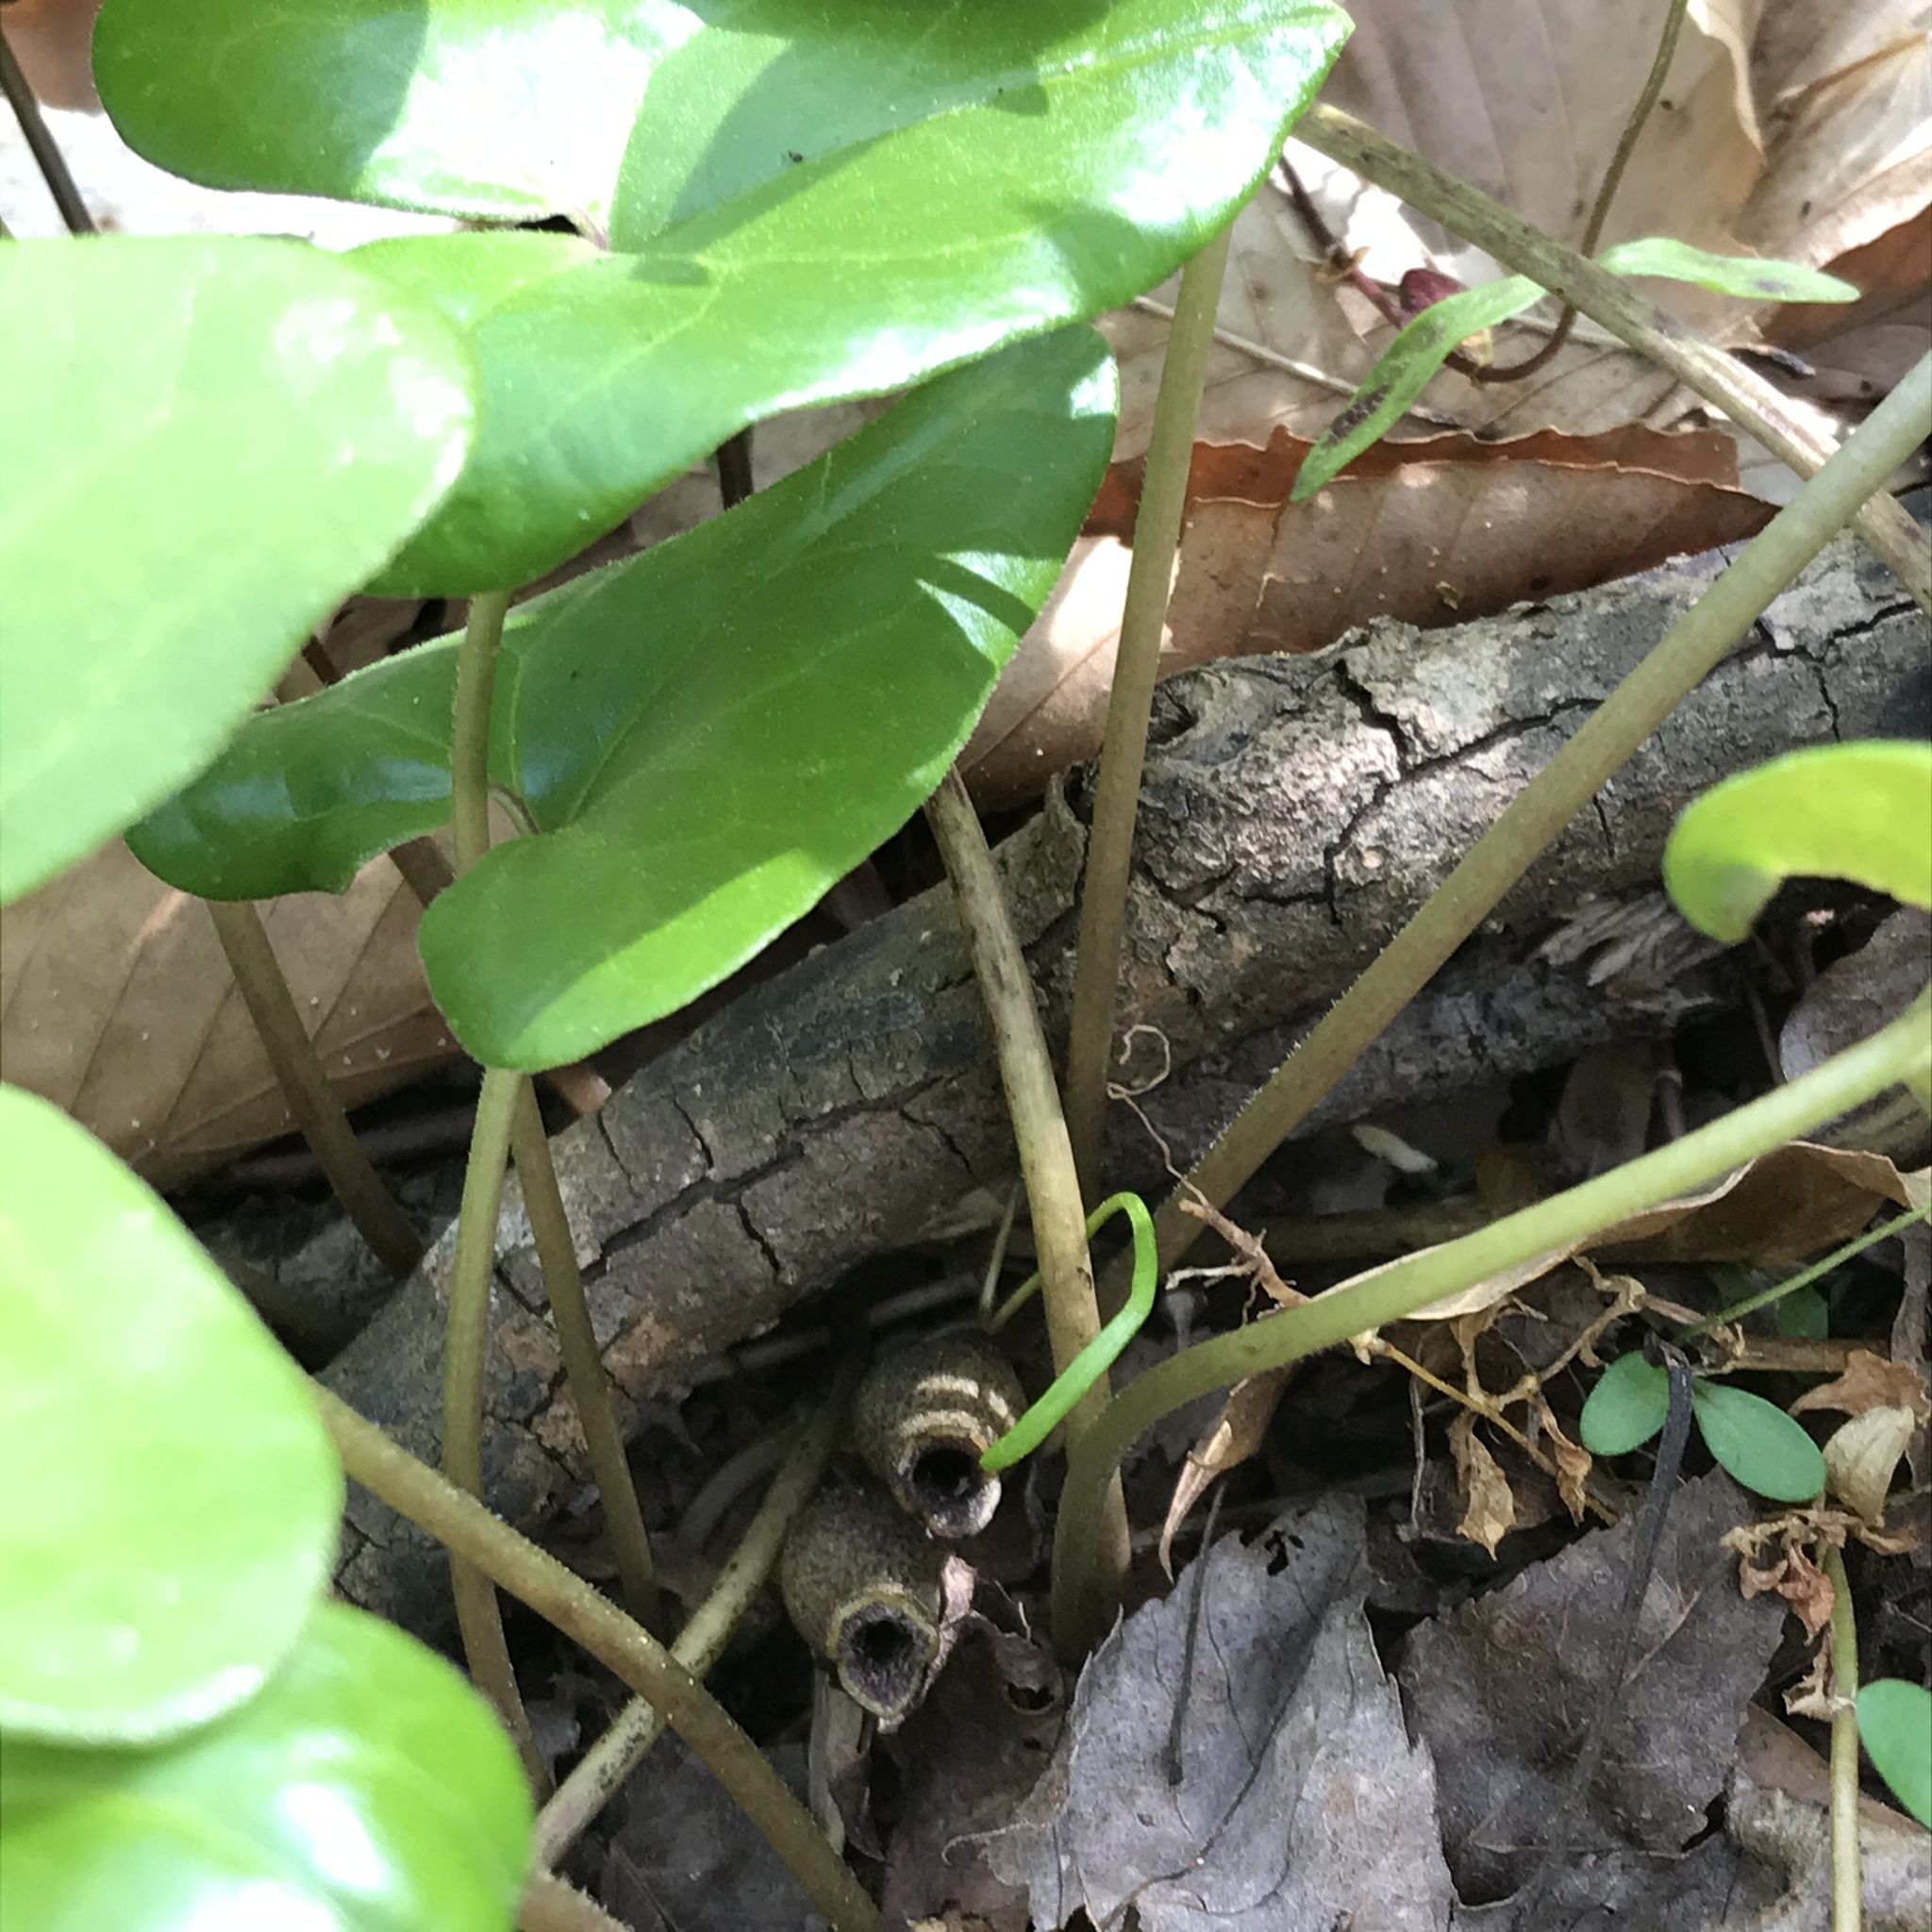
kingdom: Plantae
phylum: Tracheophyta
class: Magnoliopsida
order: Piperales
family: Aristolochiaceae
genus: Hexastylis
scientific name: Hexastylis arifolia
